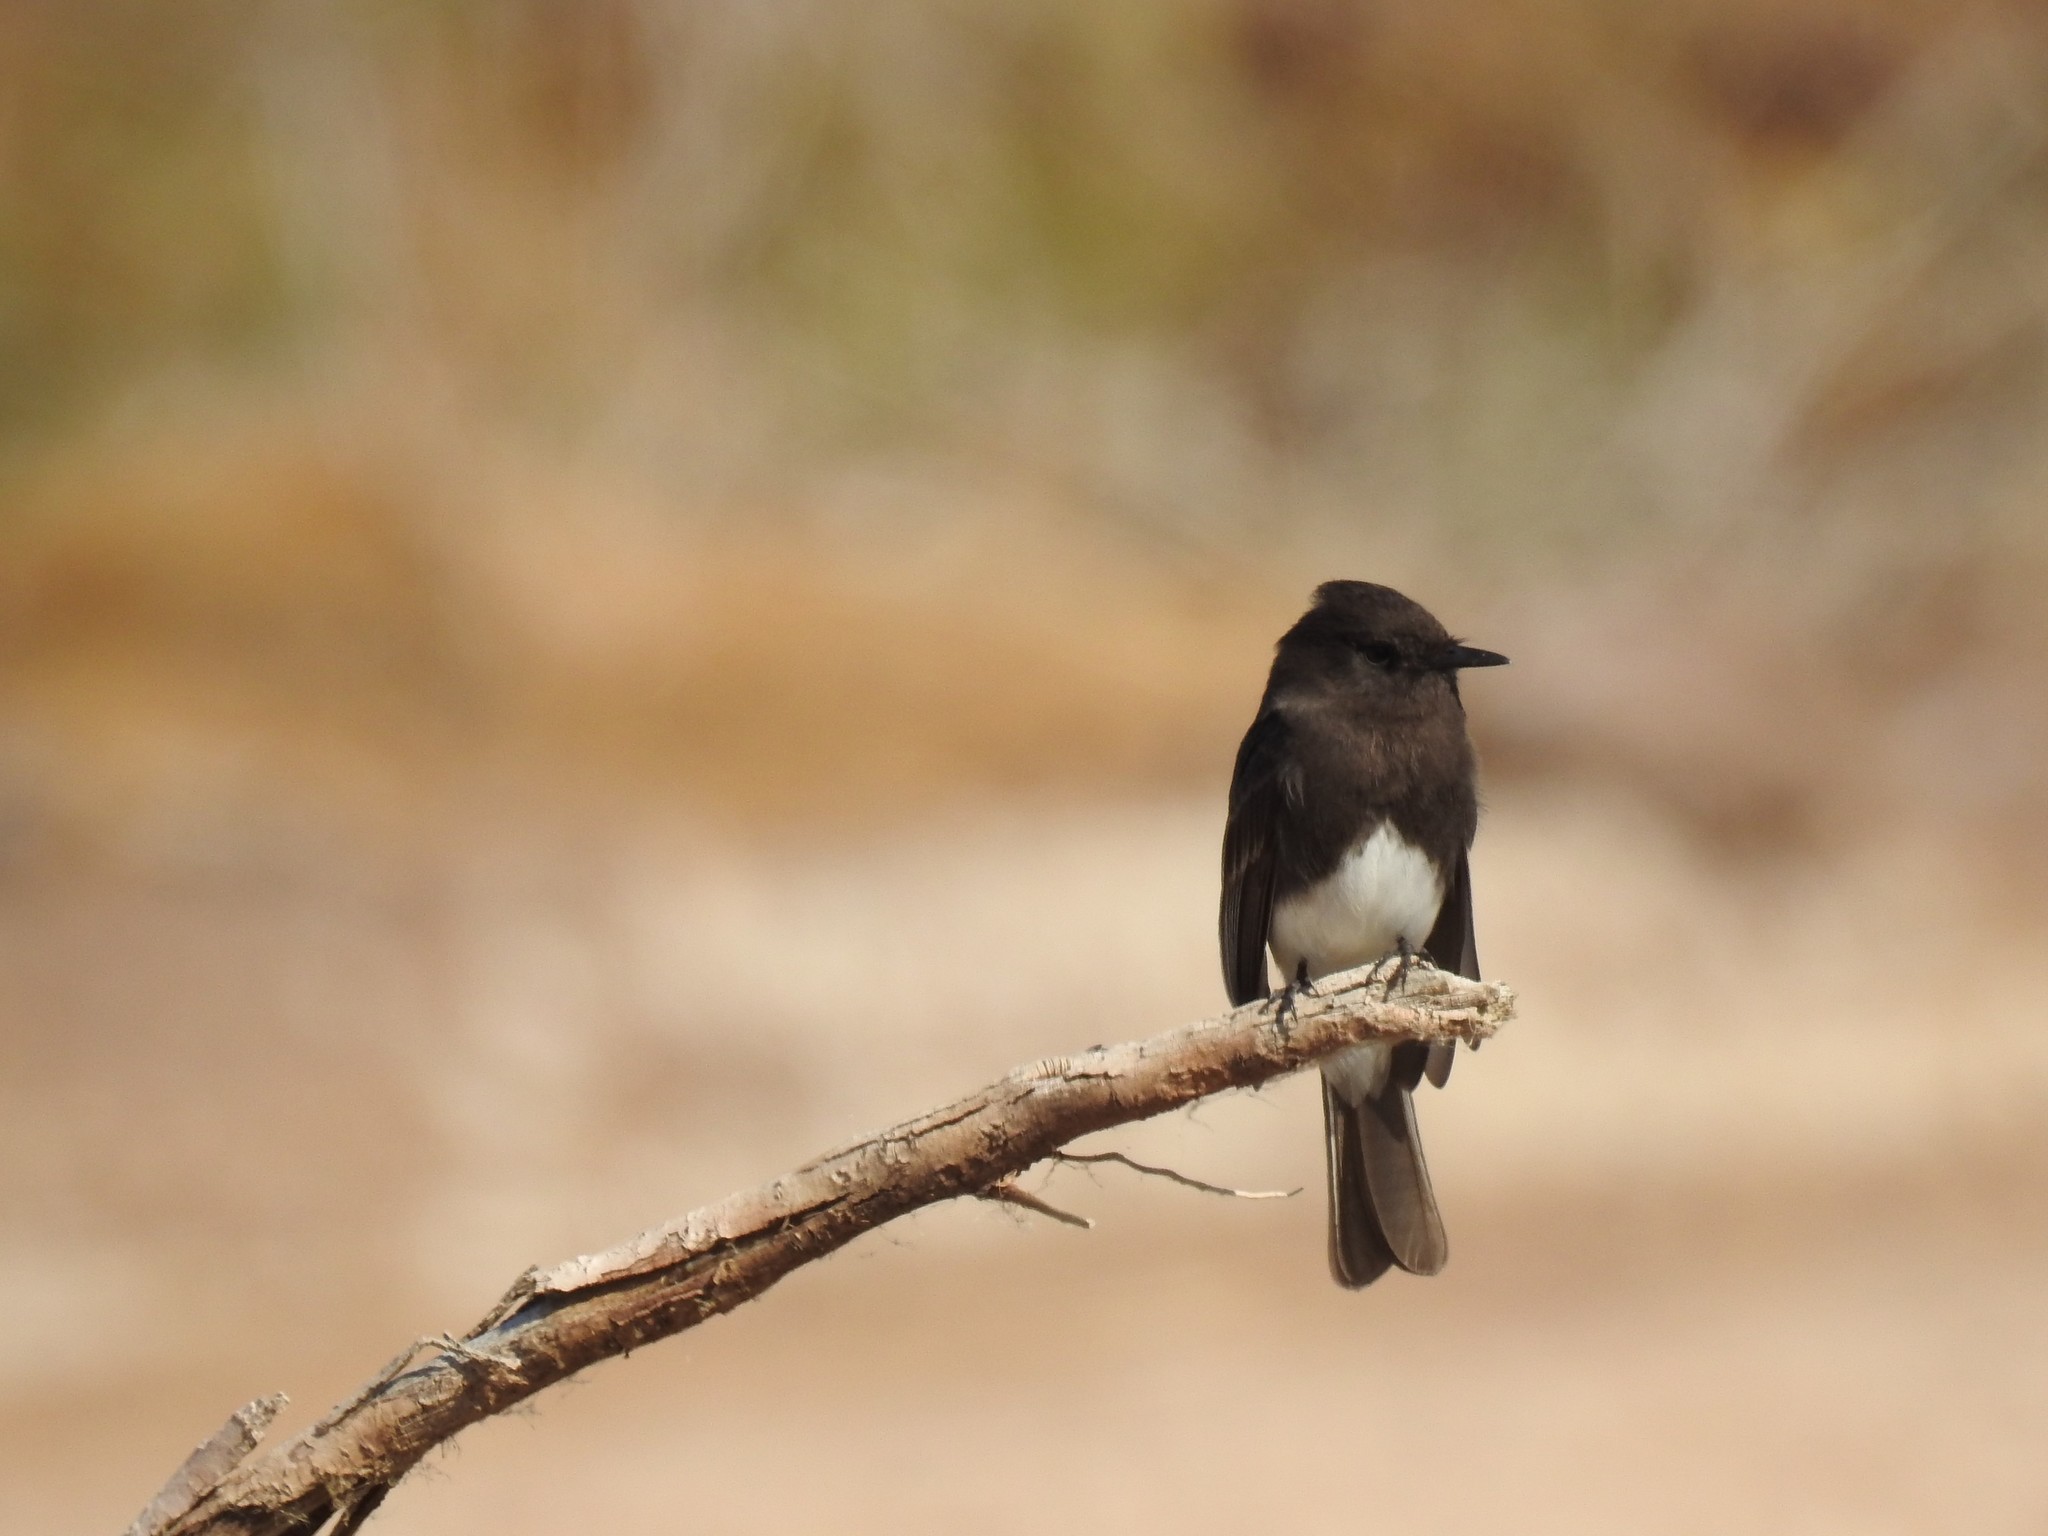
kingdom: Animalia
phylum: Chordata
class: Aves
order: Passeriformes
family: Tyrannidae
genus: Sayornis
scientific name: Sayornis nigricans
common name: Black phoebe
